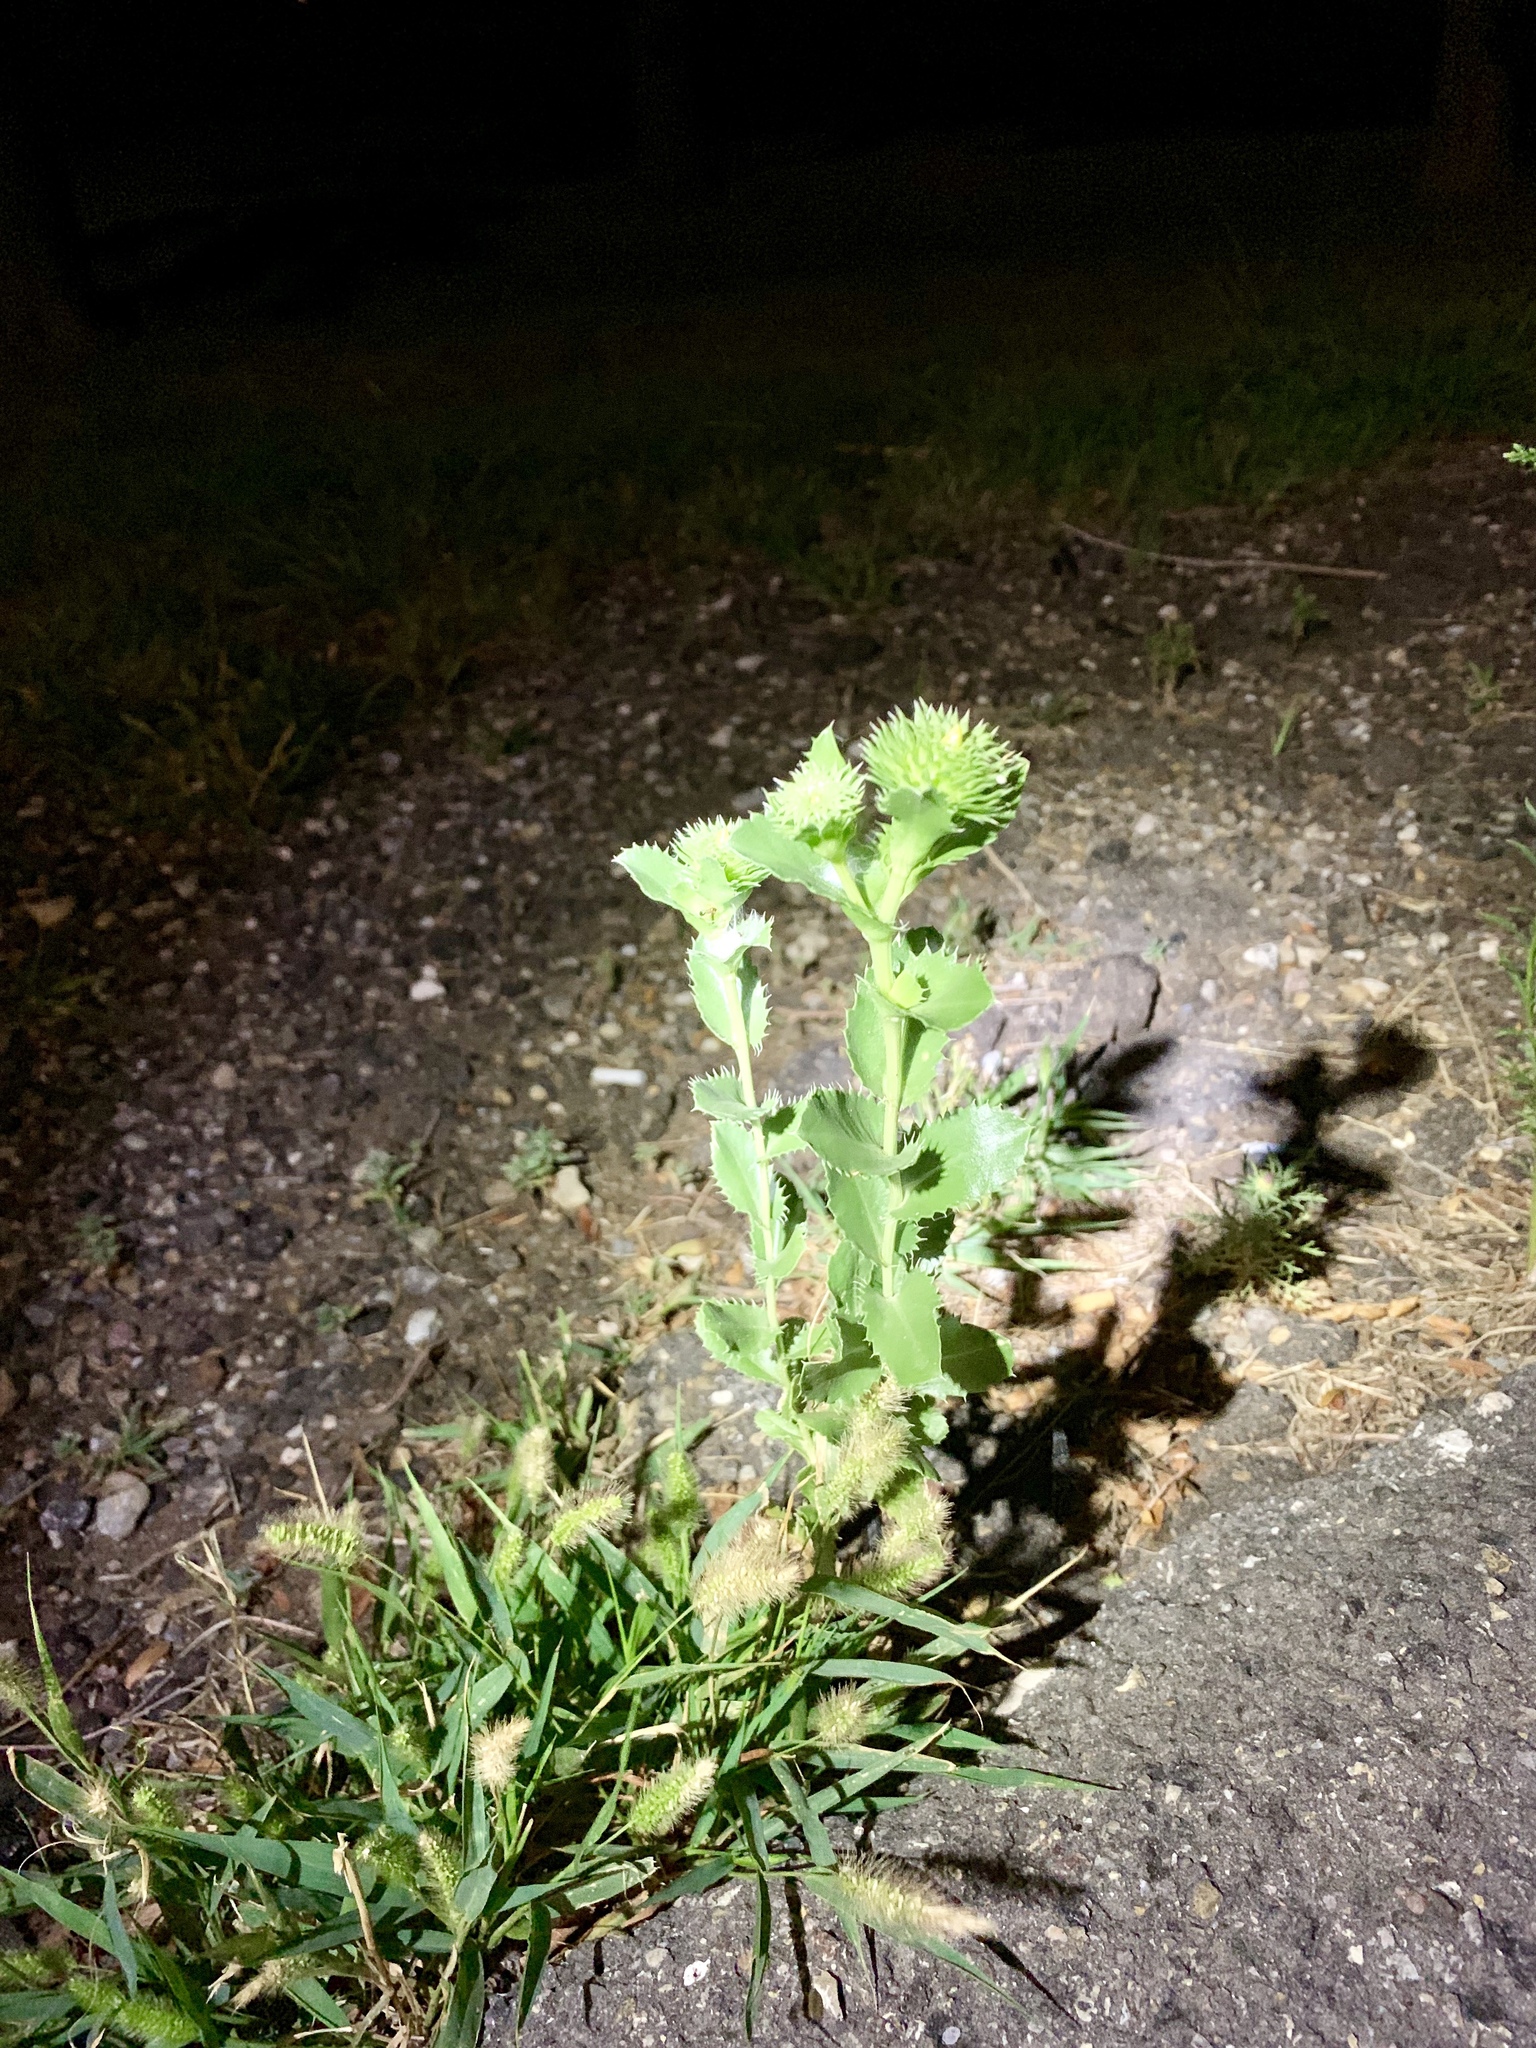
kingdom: Plantae
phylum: Tracheophyta
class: Magnoliopsida
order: Asterales
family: Asteraceae
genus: Grindelia
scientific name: Grindelia ciliata
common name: Goldenweed
